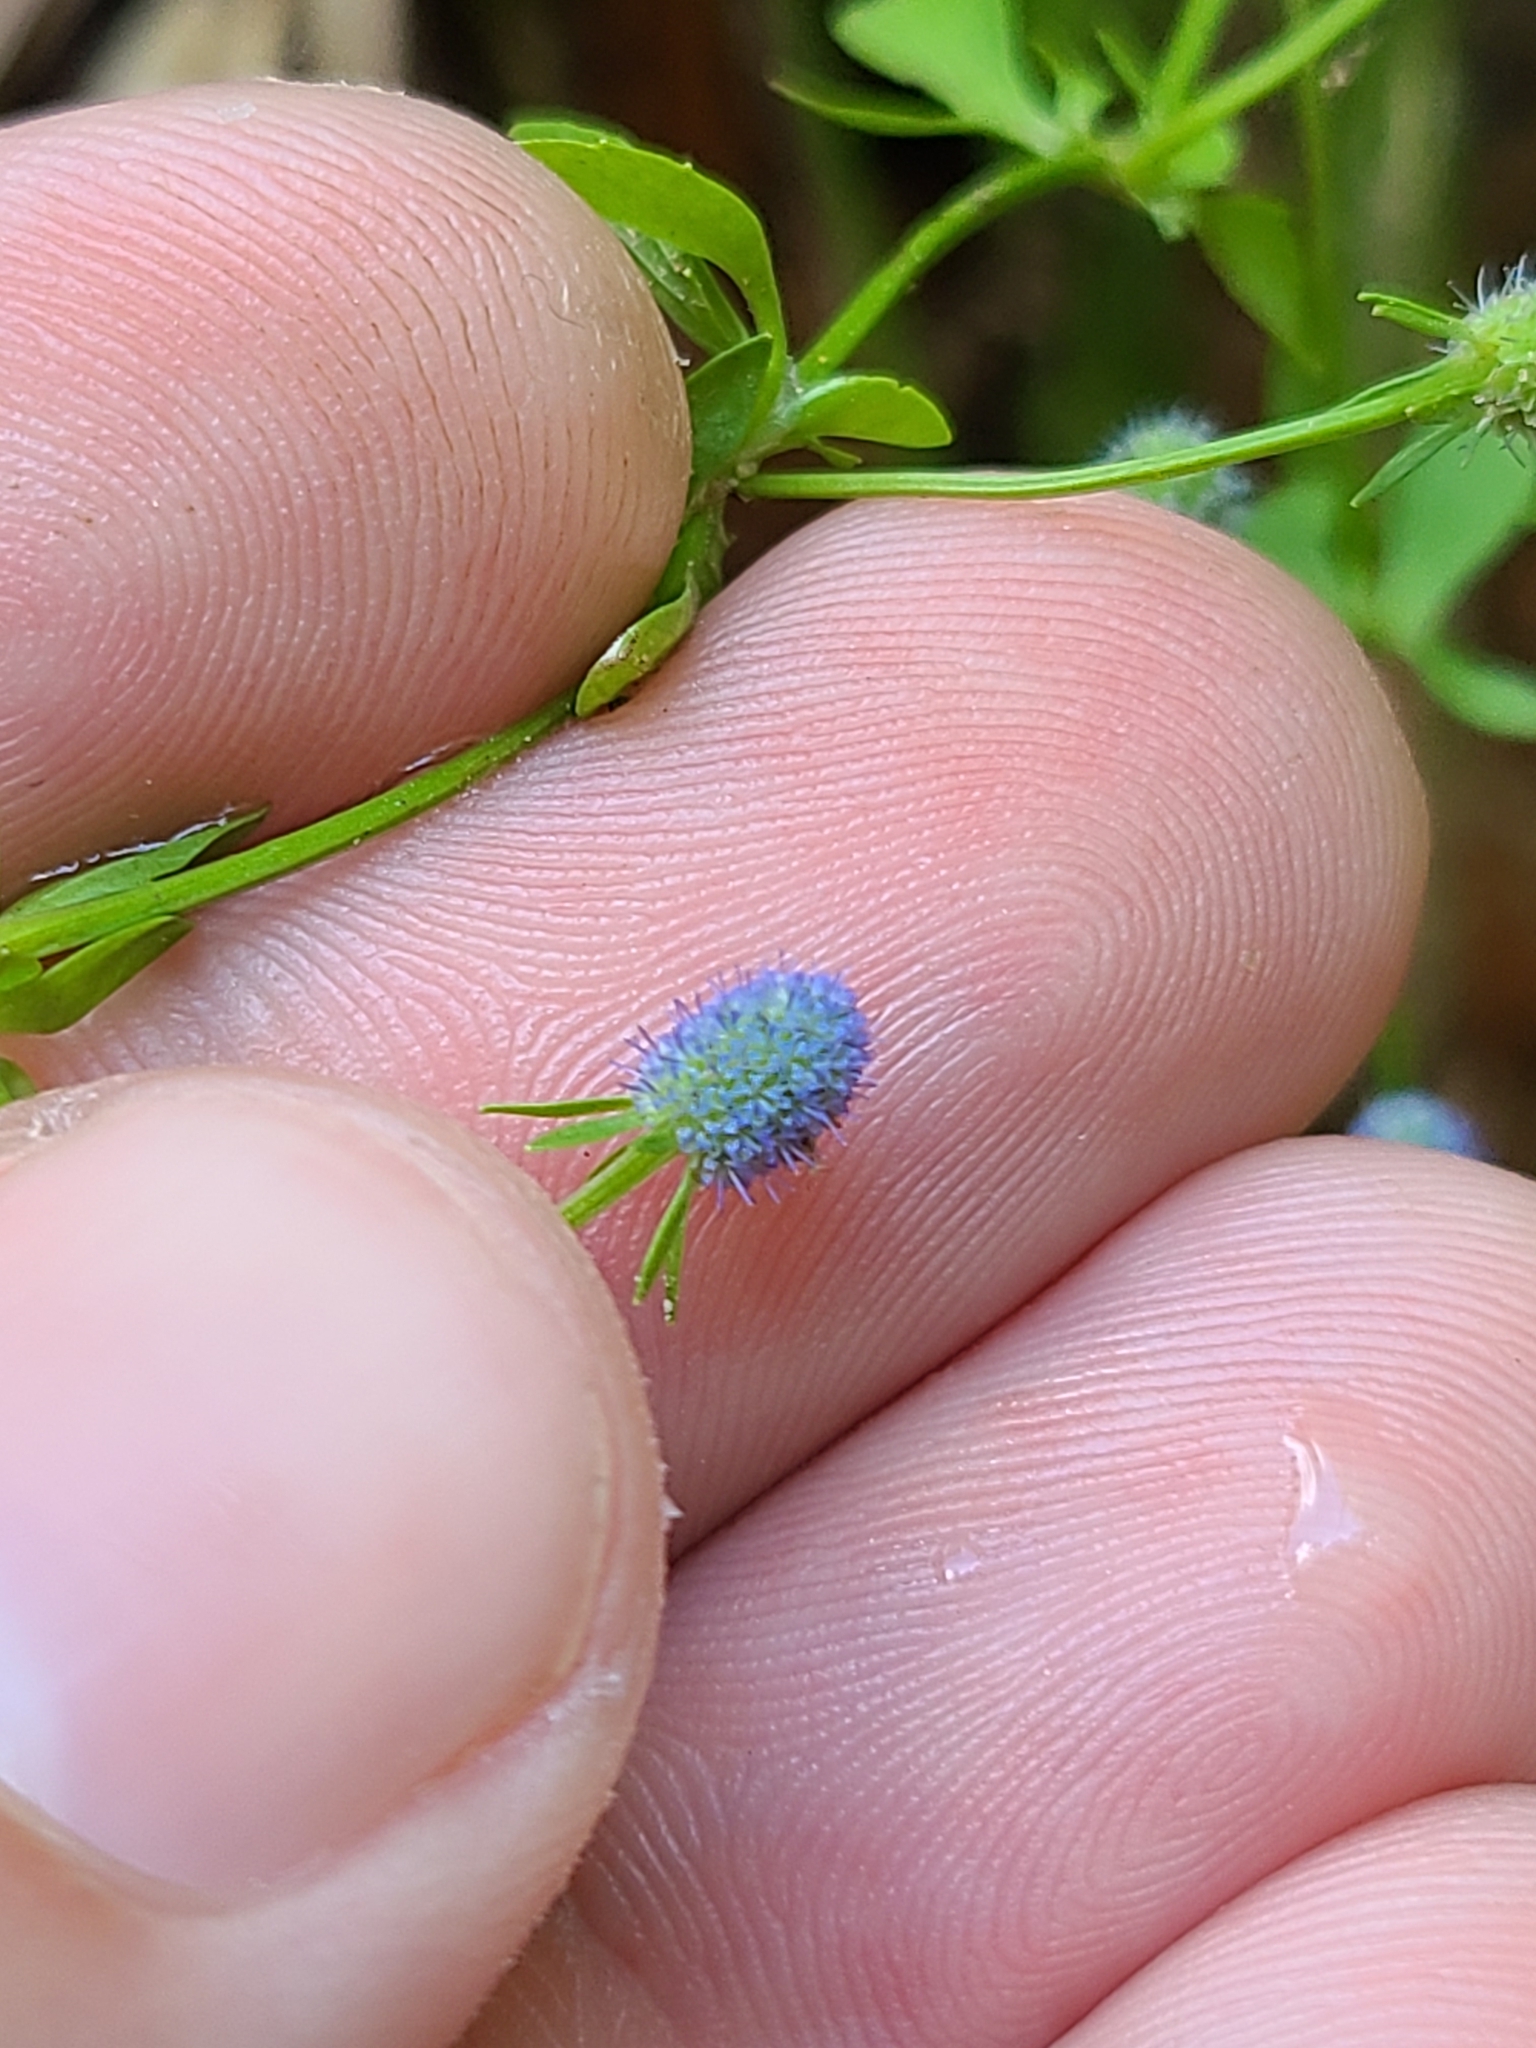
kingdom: Plantae
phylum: Tracheophyta
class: Magnoliopsida
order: Apiales
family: Apiaceae
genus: Eryngium
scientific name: Eryngium prostratum
